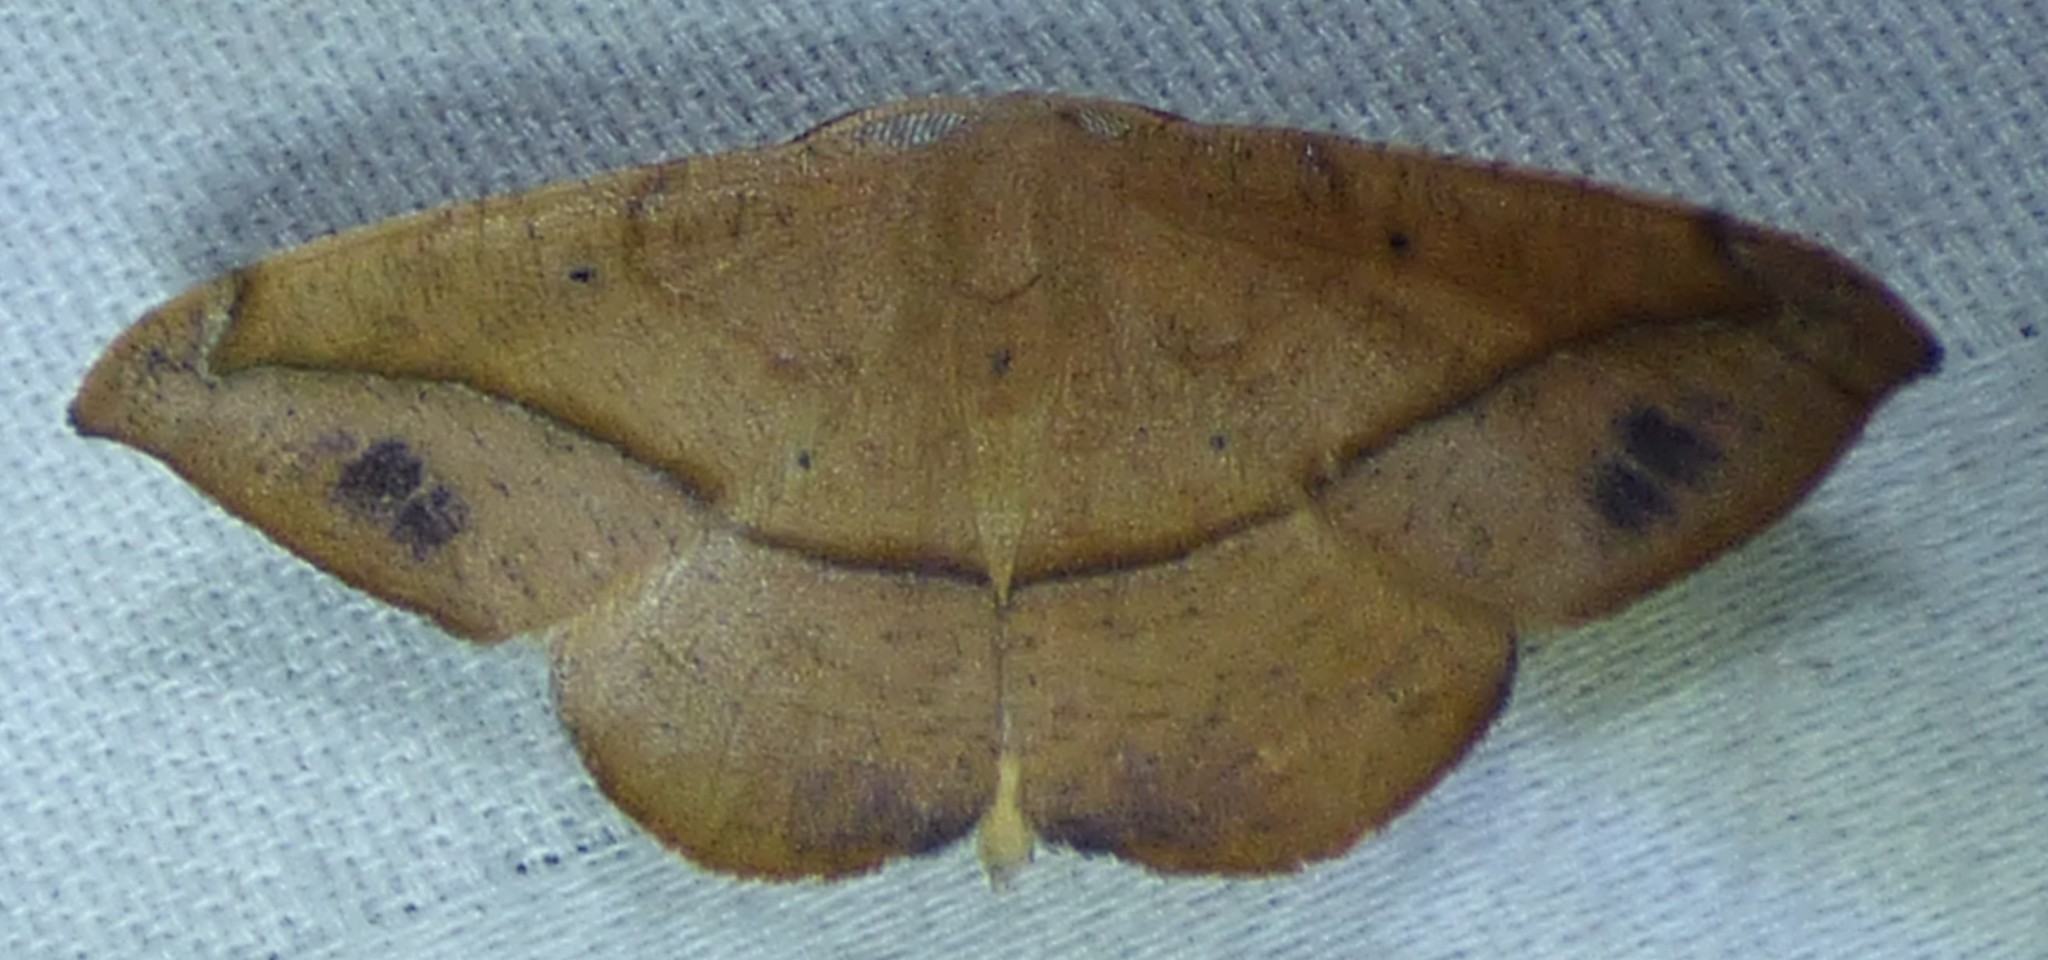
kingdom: Animalia
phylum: Arthropoda
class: Insecta
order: Lepidoptera
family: Geometridae
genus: Patalene
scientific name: Patalene olyzonaria
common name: Juniper geometer moth
